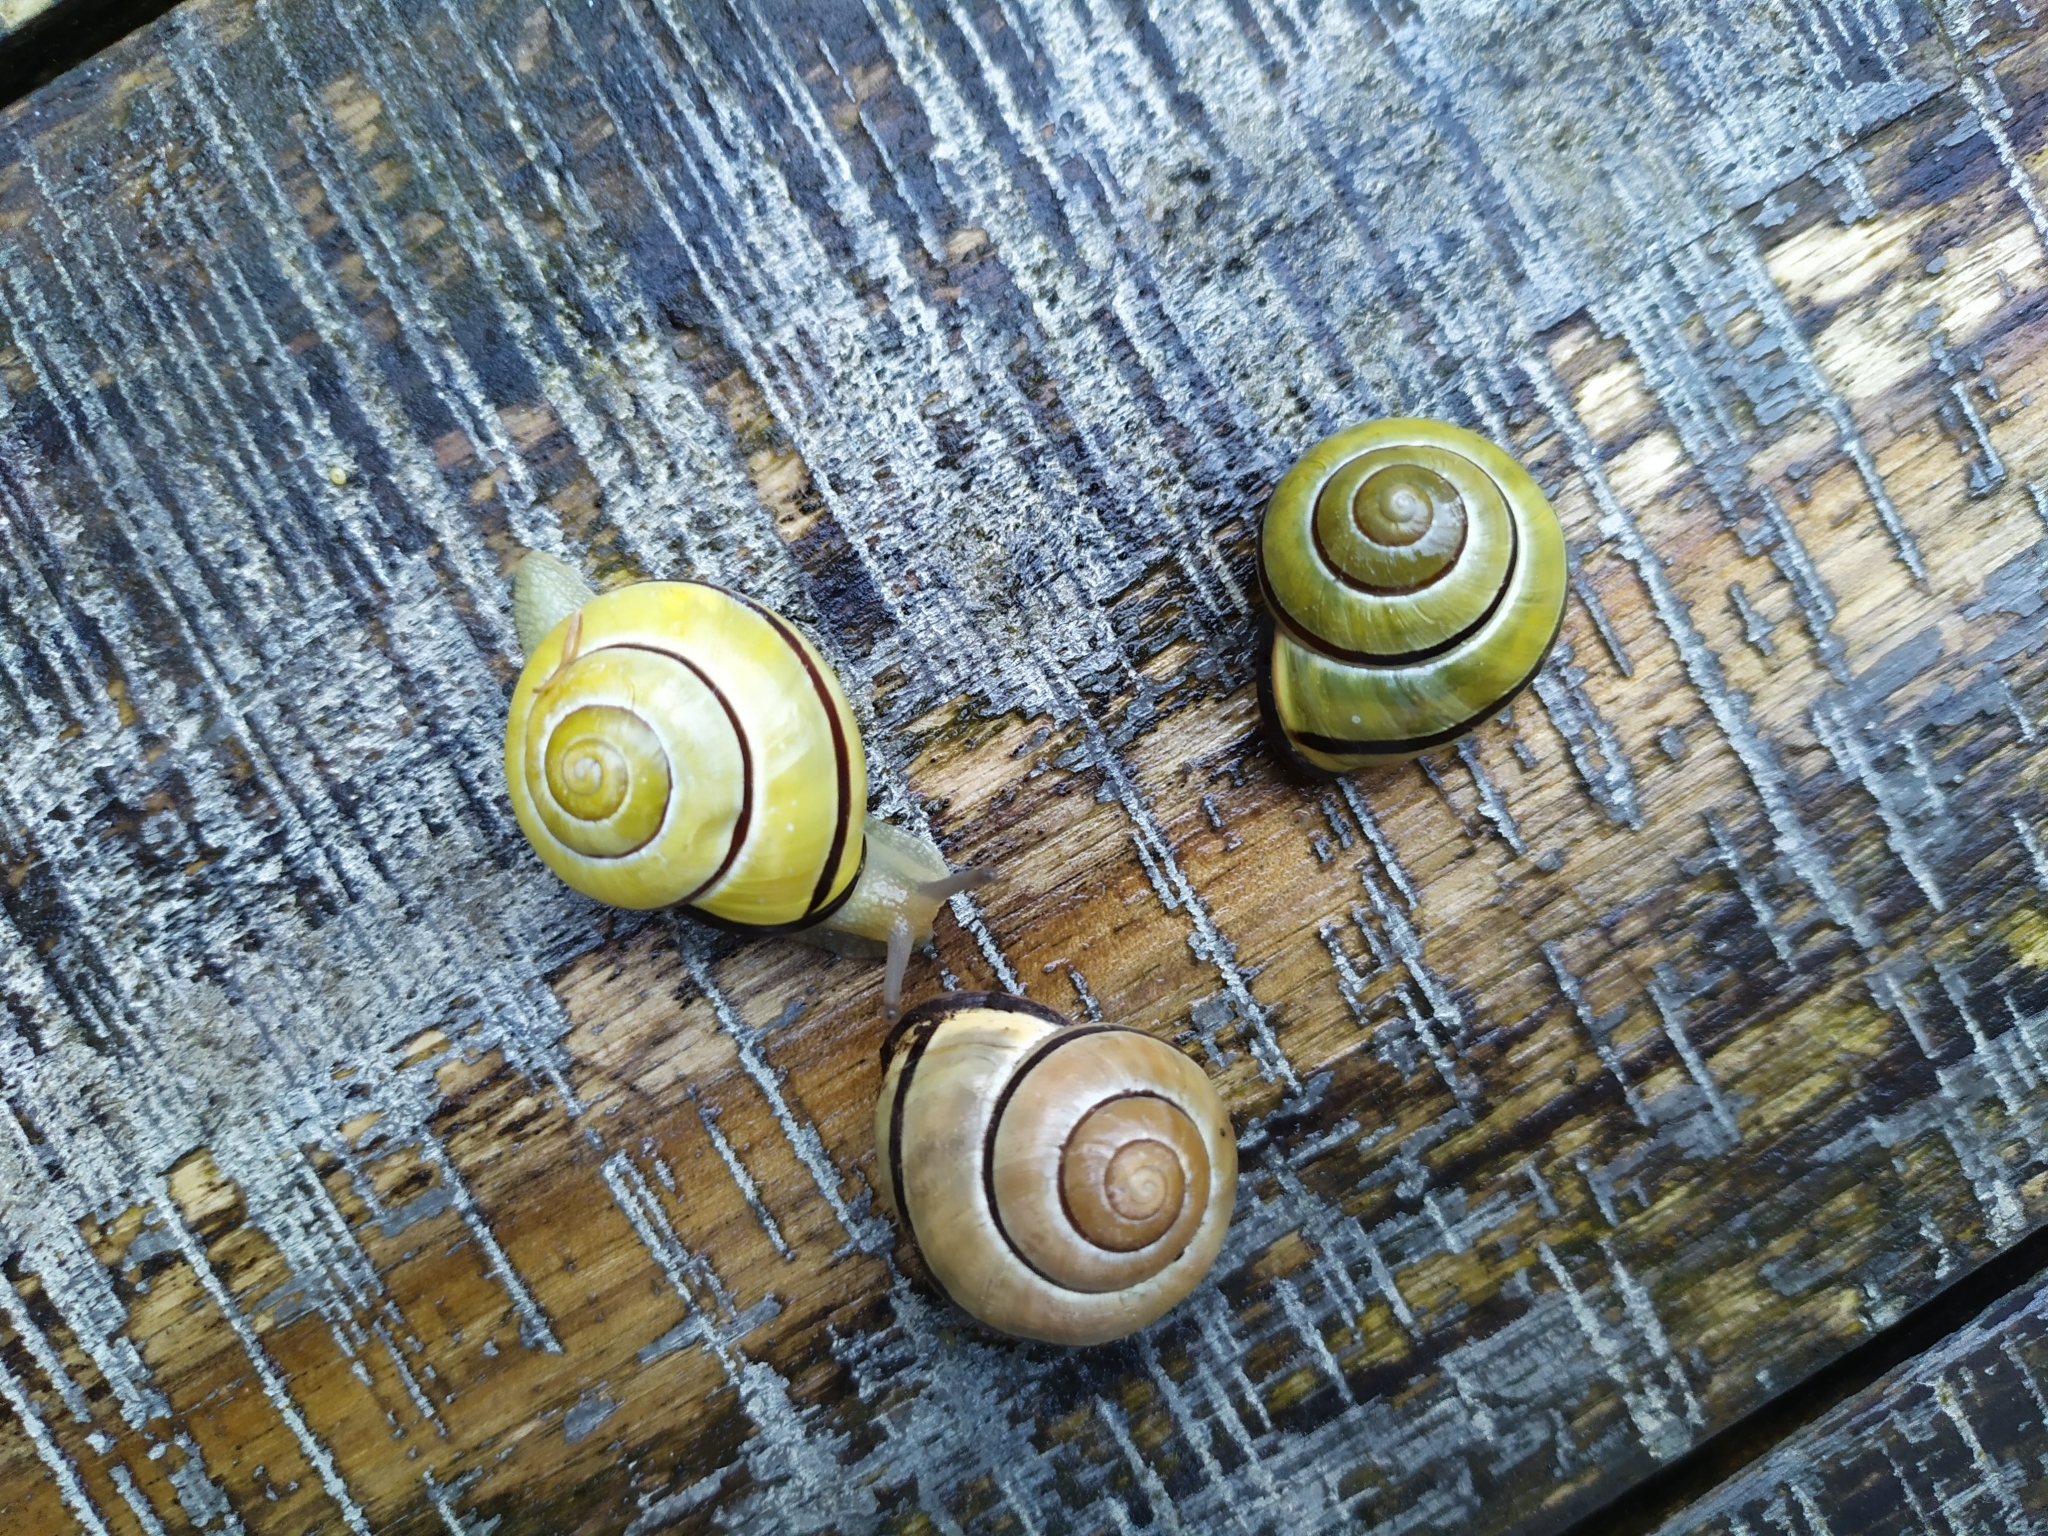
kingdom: Animalia
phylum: Mollusca
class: Gastropoda
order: Stylommatophora
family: Helicidae
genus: Cepaea
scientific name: Cepaea nemoralis
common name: Grovesnail
